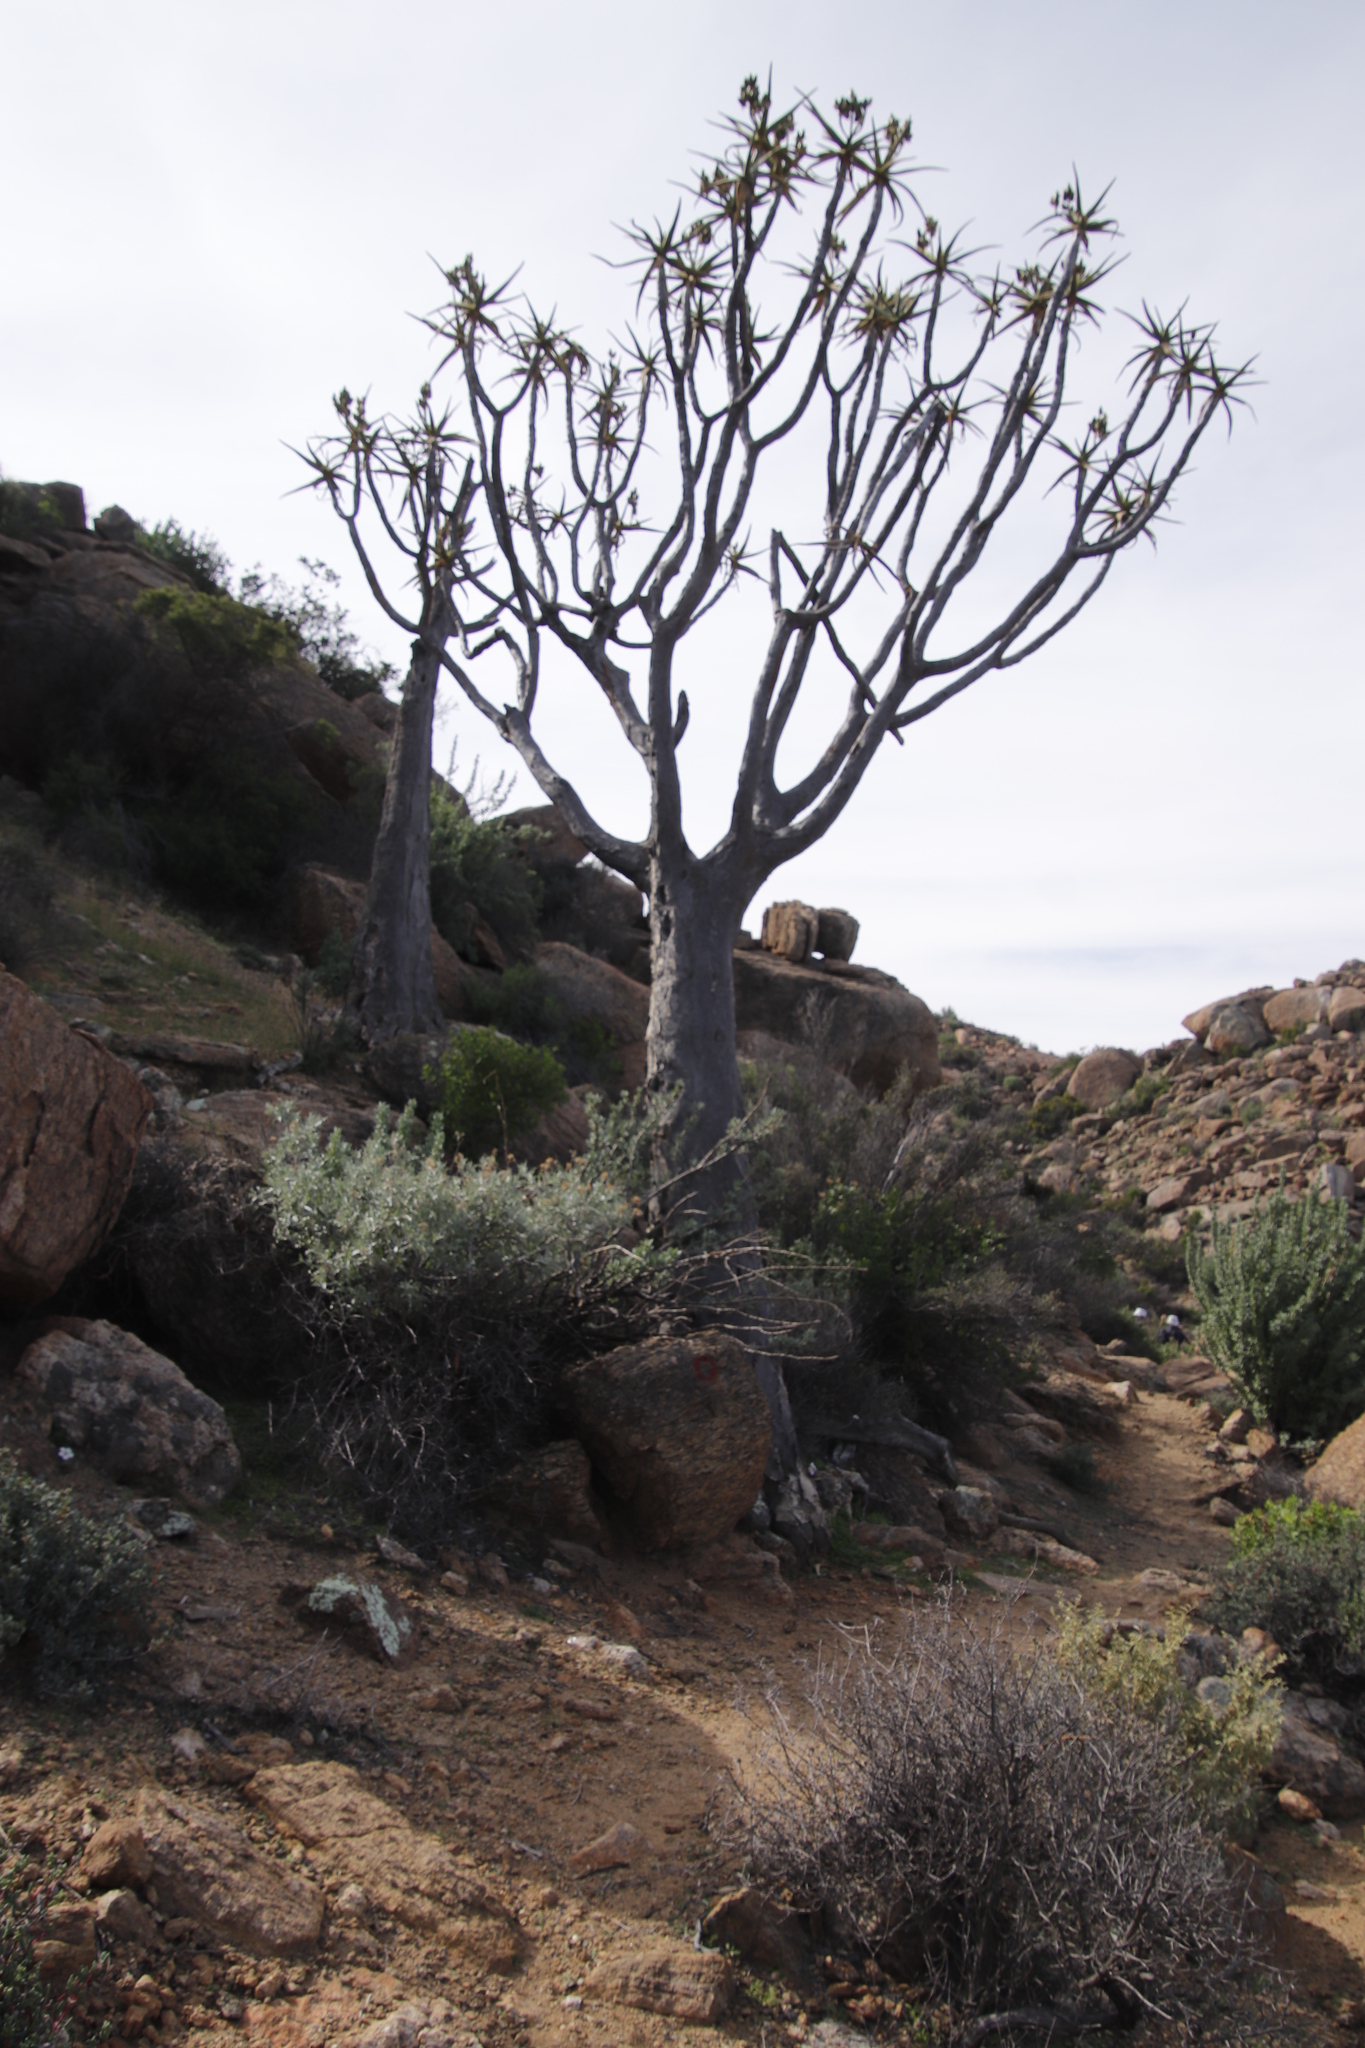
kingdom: Plantae
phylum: Tracheophyta
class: Liliopsida
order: Asparagales
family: Asphodelaceae
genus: Aloidendron
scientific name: Aloidendron dichotomum
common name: Quiver tree
